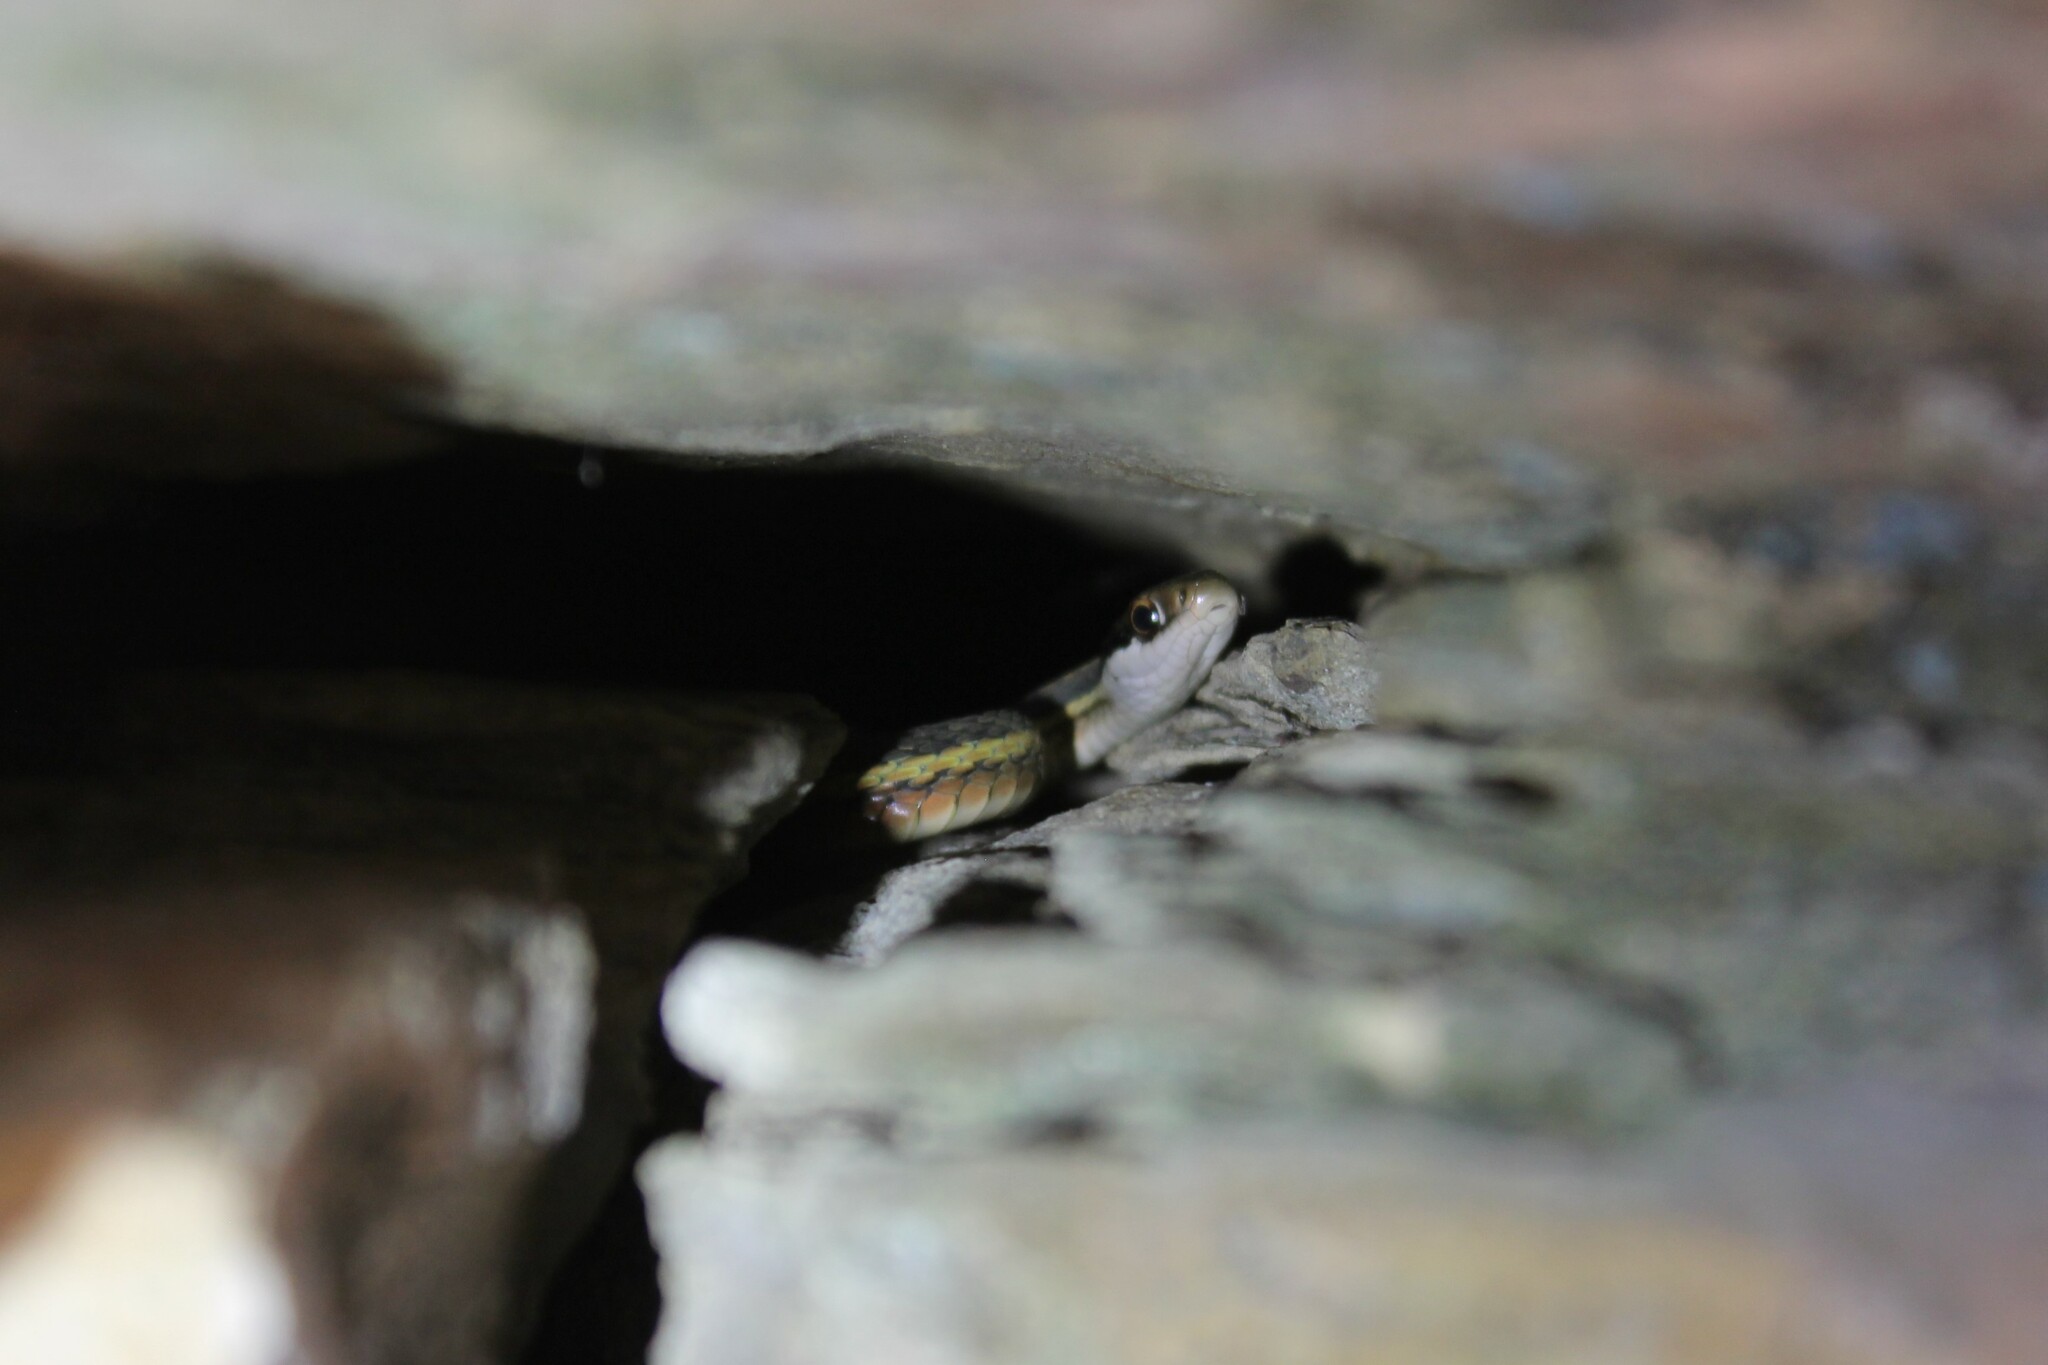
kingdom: Animalia
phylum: Chordata
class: Squamata
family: Colubridae
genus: Thamnophis
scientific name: Thamnophis saurita
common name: Eastern ribbonsnake
